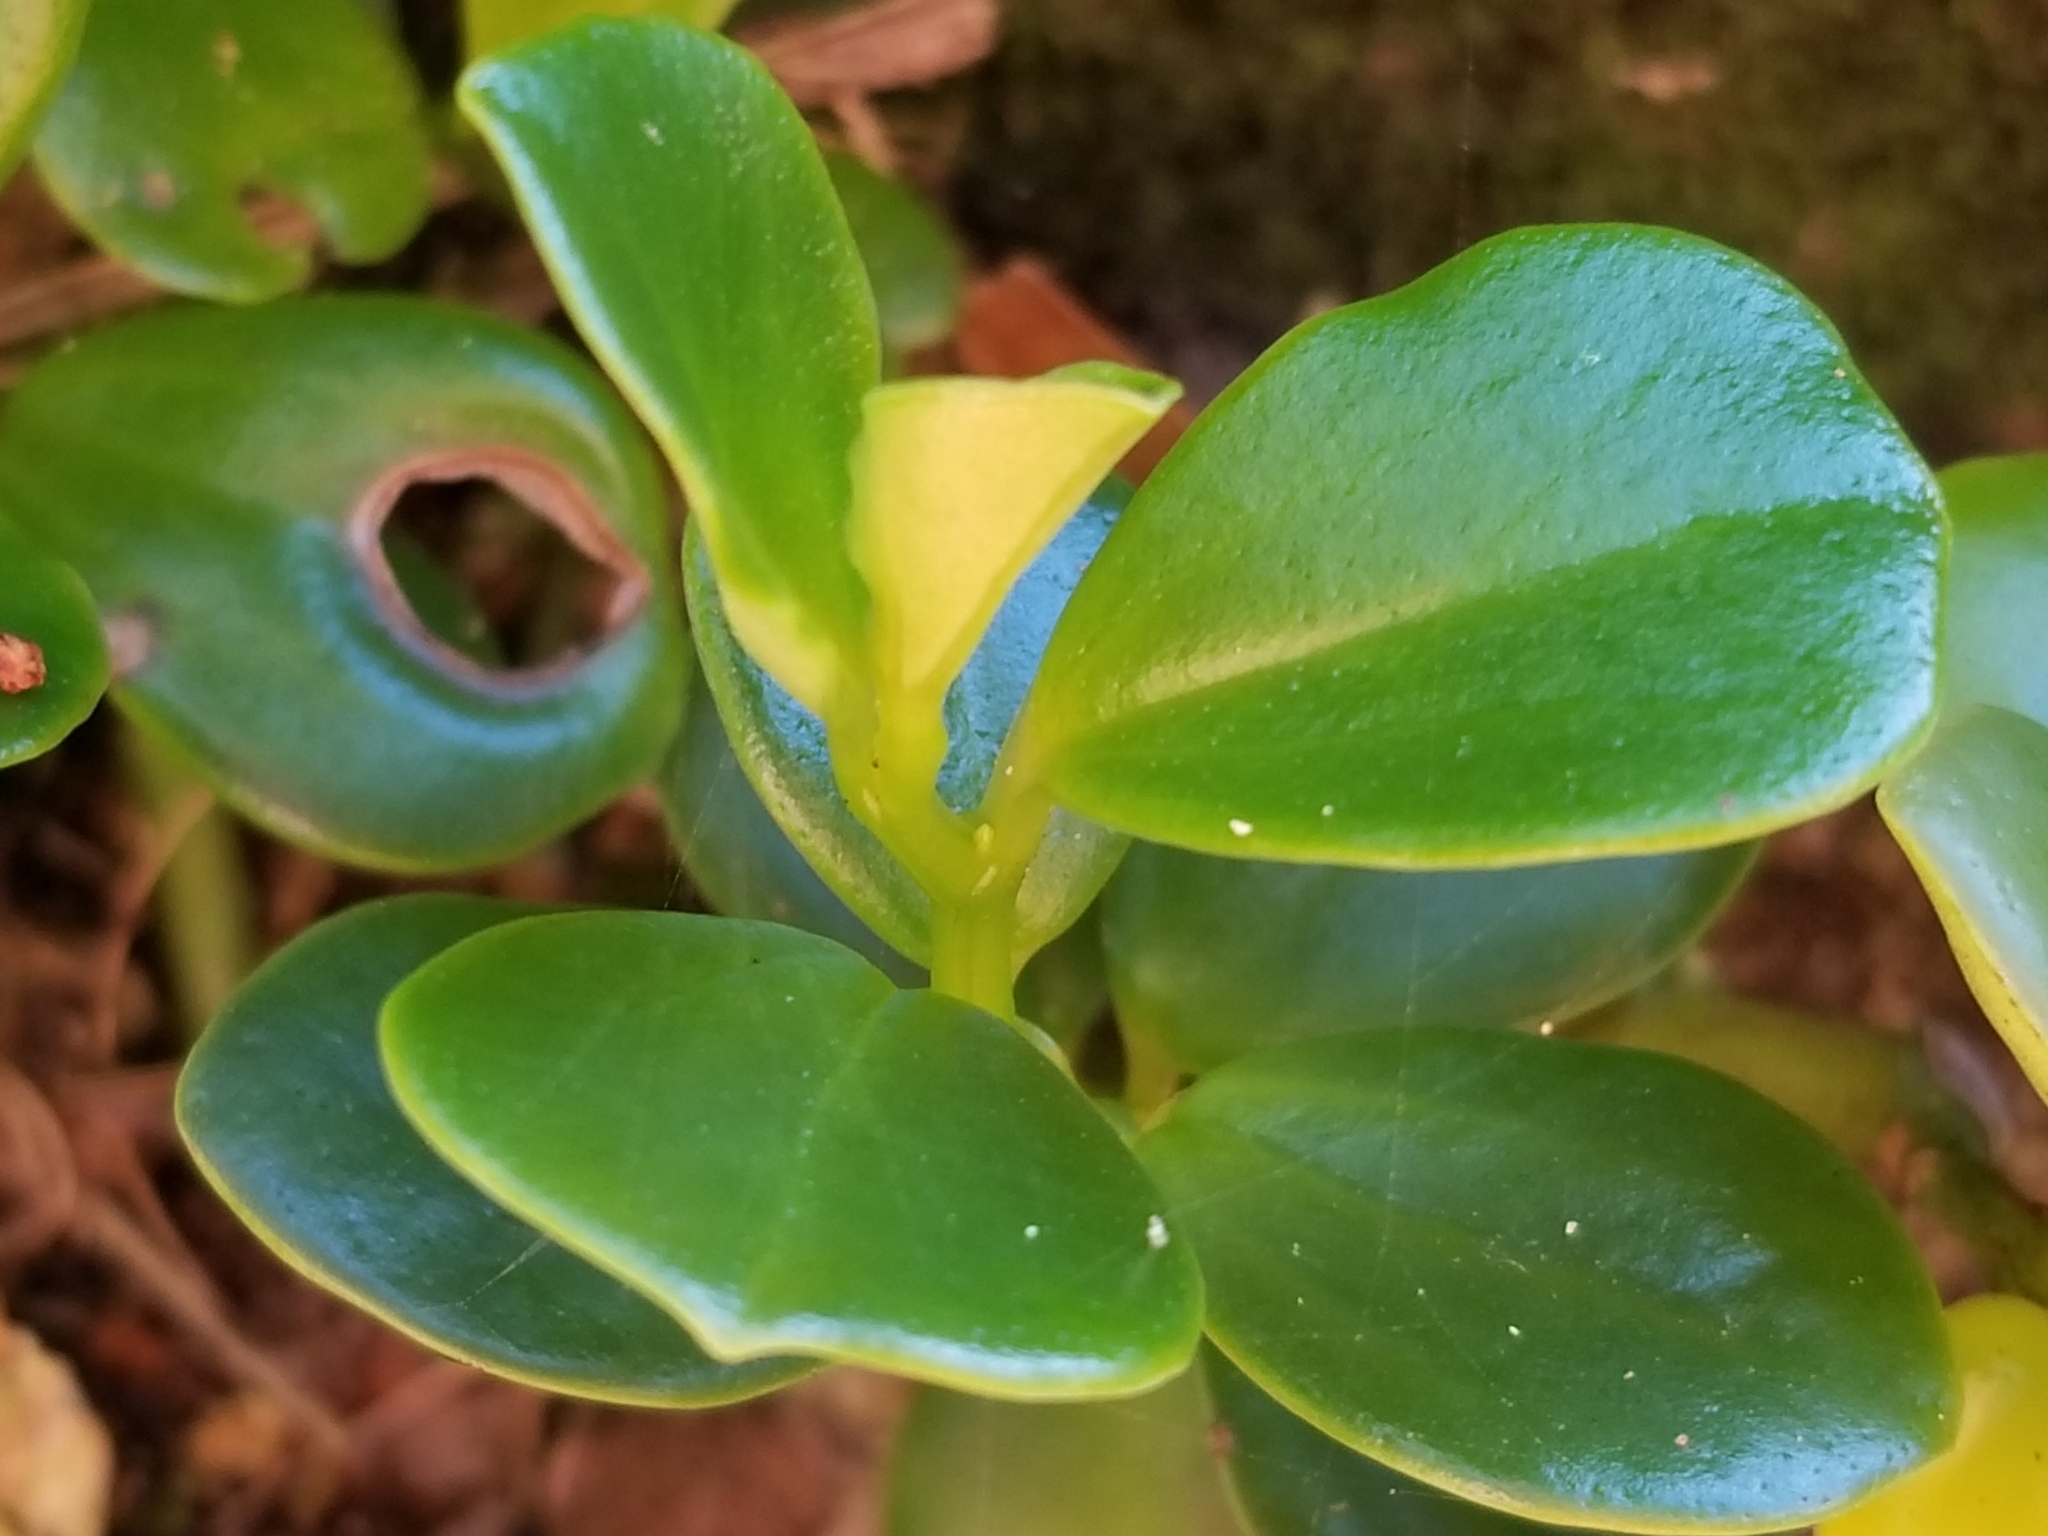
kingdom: Plantae
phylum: Tracheophyta
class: Magnoliopsida
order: Piperales
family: Piperaceae
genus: Peperomia
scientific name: Peperomia urvilleana
